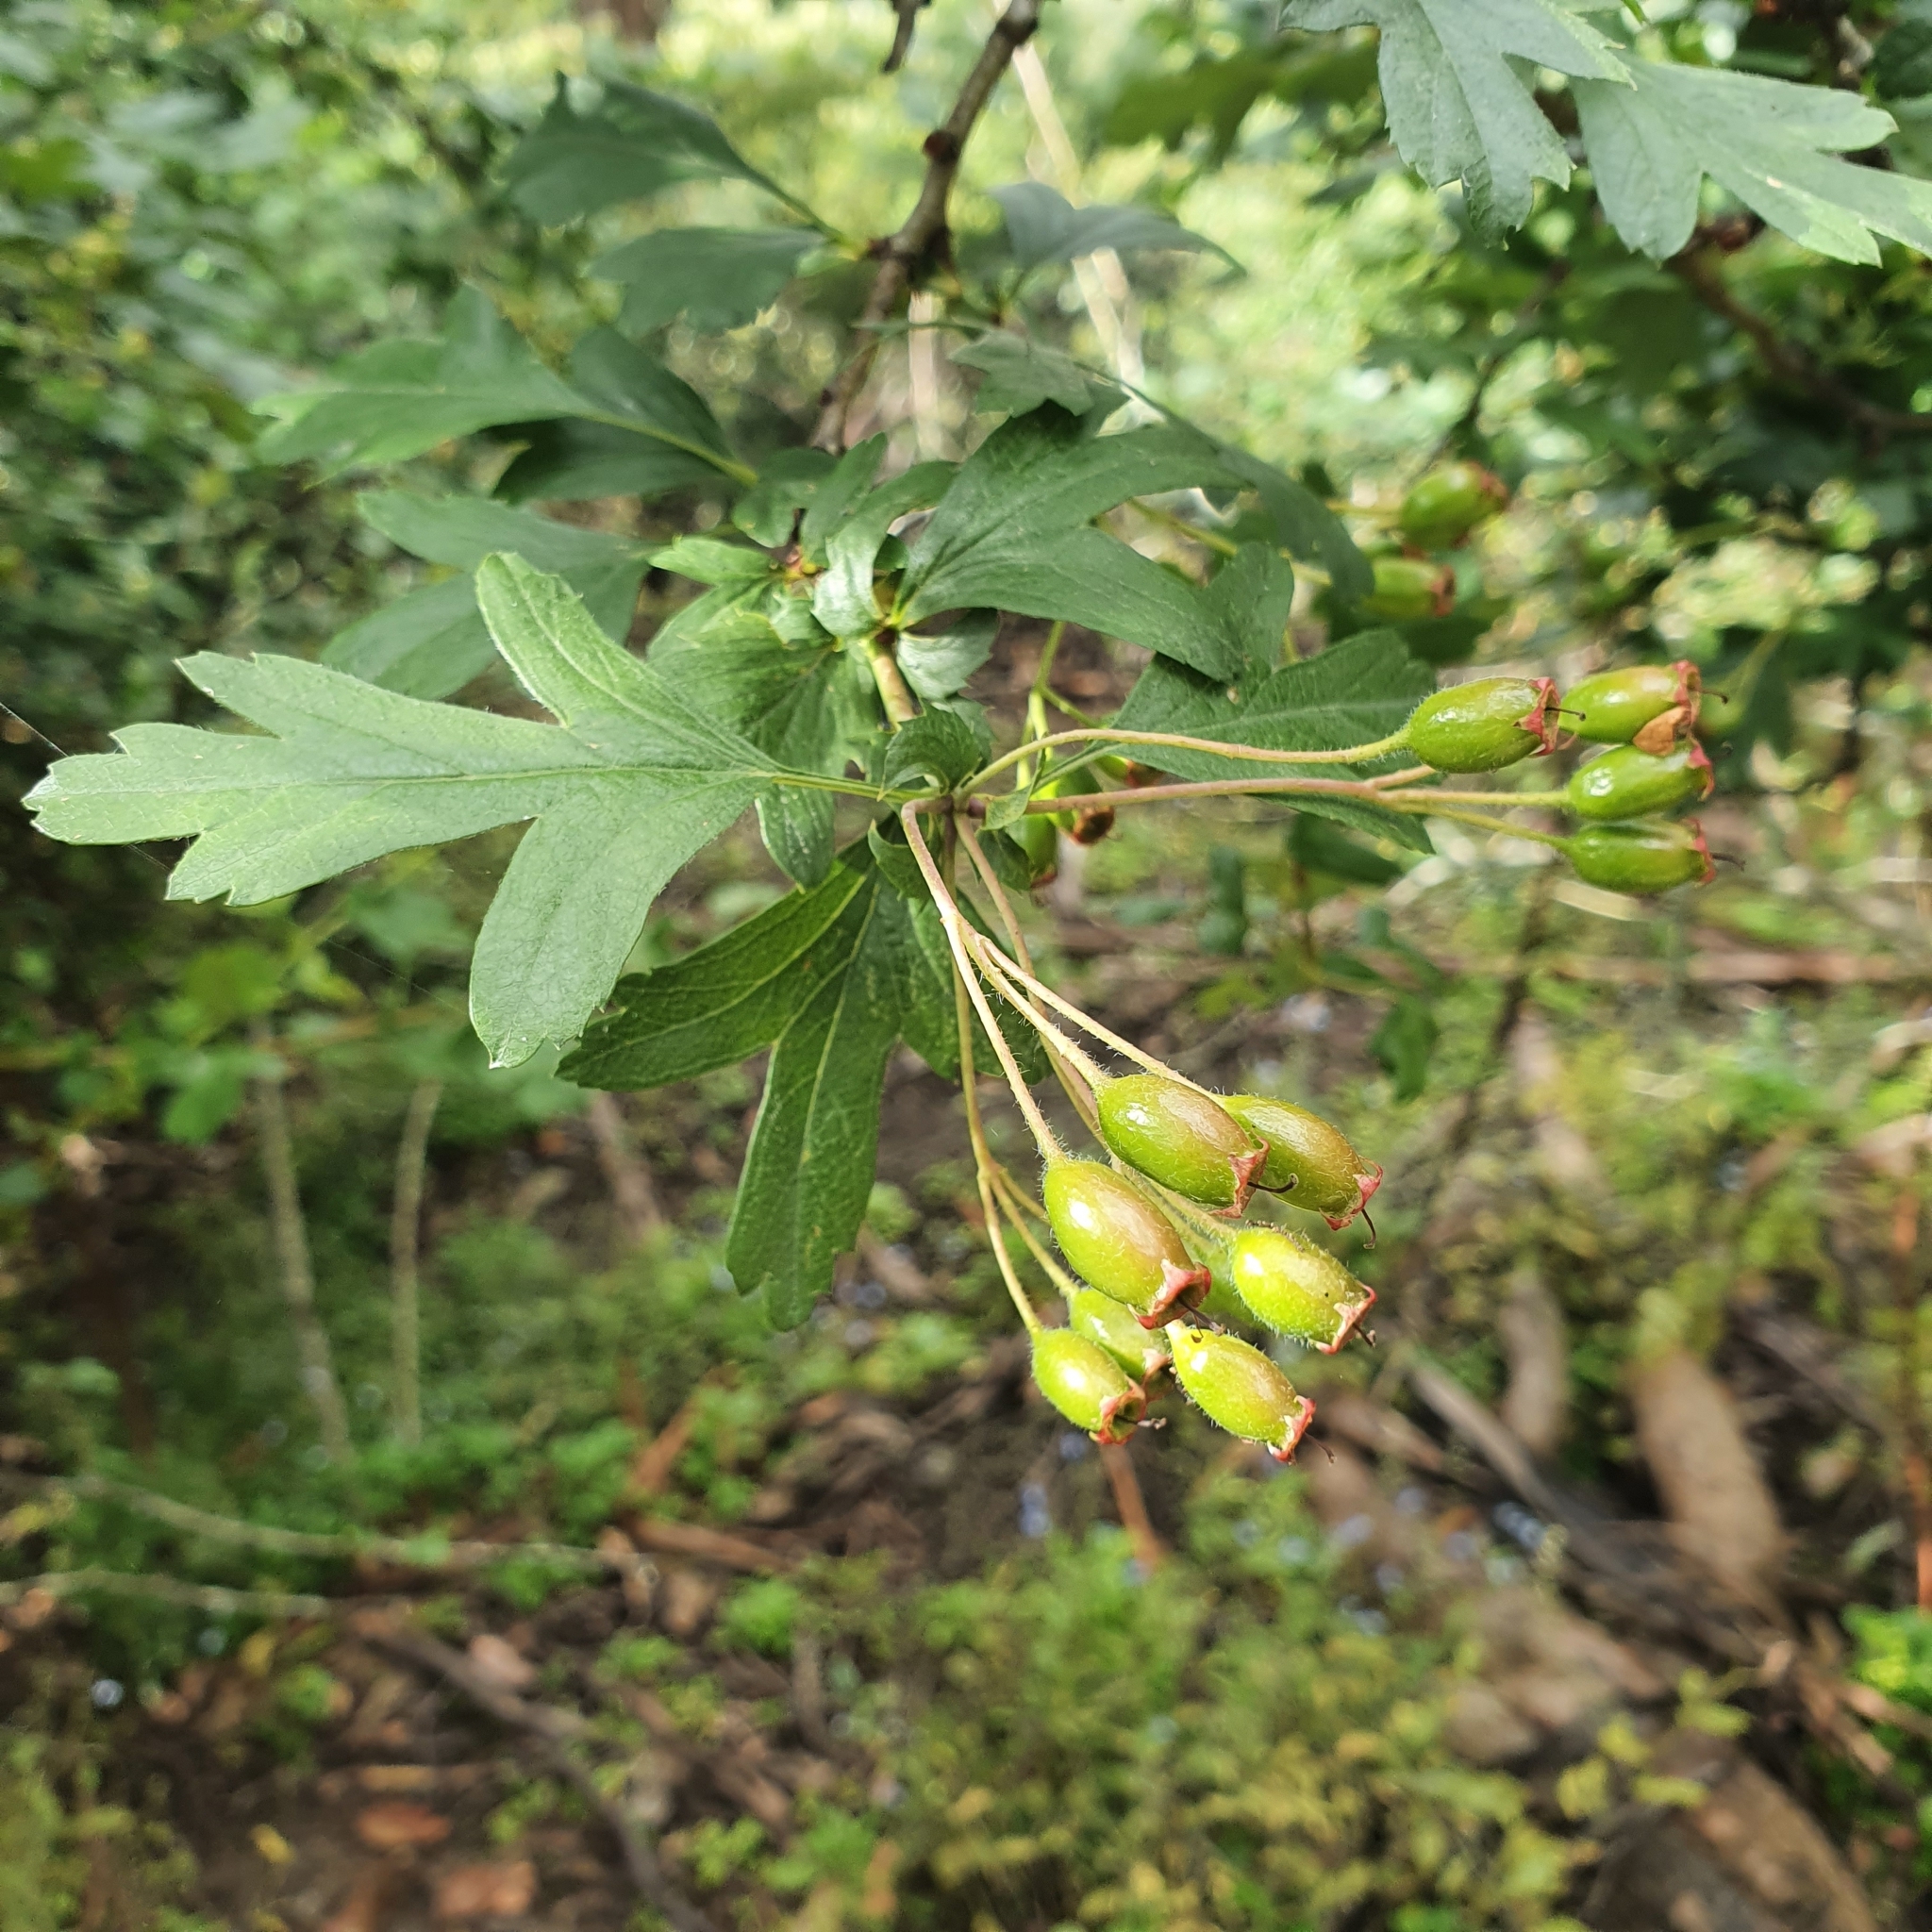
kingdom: Plantae
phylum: Tracheophyta
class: Magnoliopsida
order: Rosales
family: Rosaceae
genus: Crataegus
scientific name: Crataegus monogyna
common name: Hawthorn
